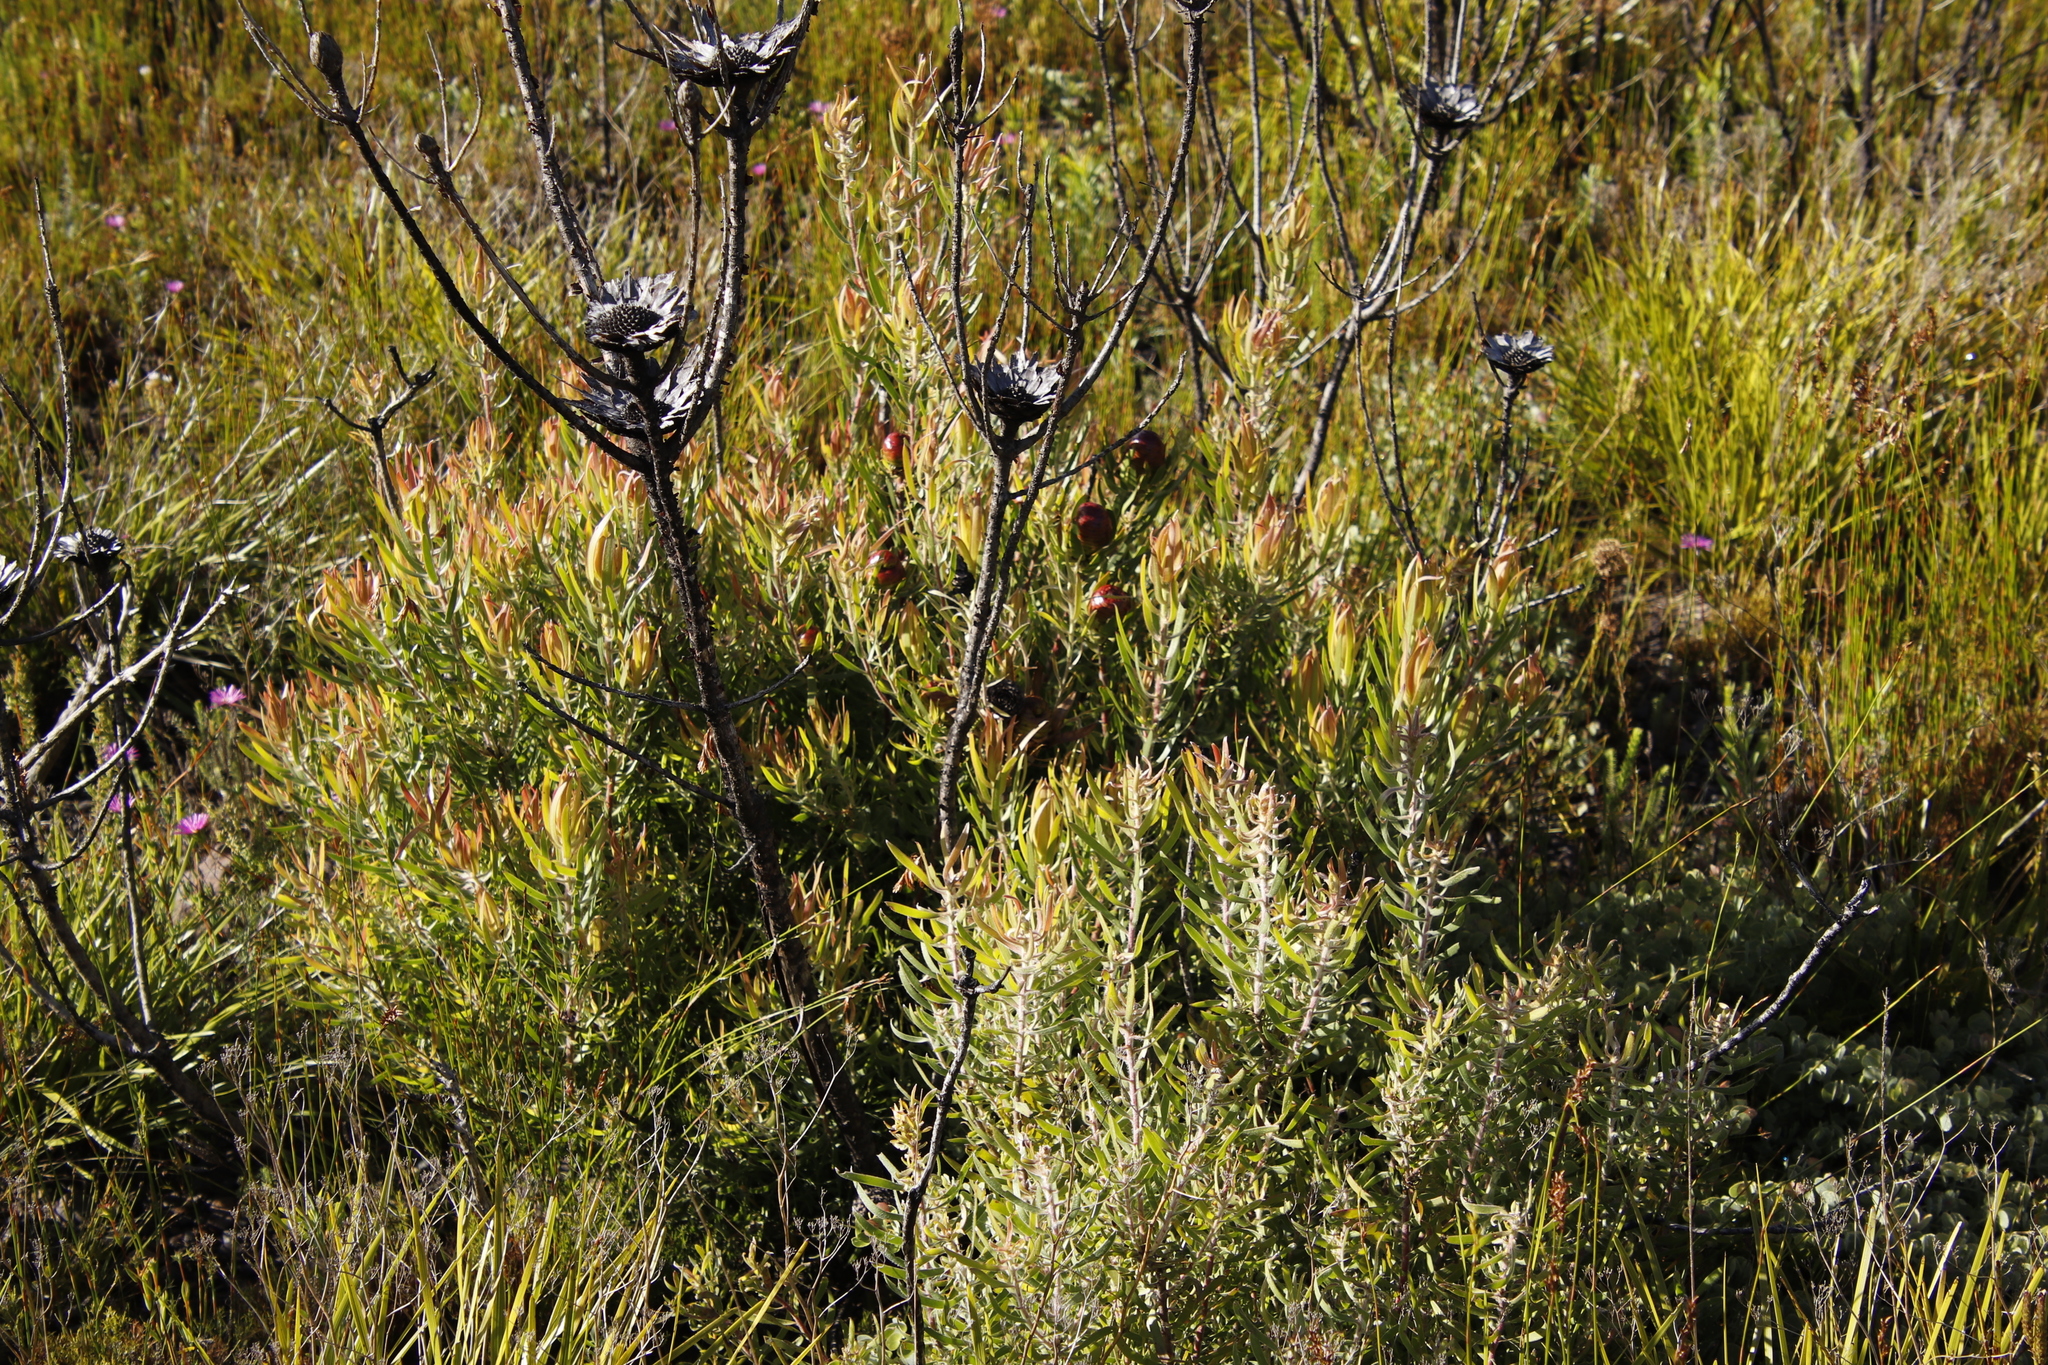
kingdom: Plantae
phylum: Tracheophyta
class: Magnoliopsida
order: Proteales
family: Proteaceae
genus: Leucadendron
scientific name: Leucadendron spissifolium
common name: Spear-leaf conebush
